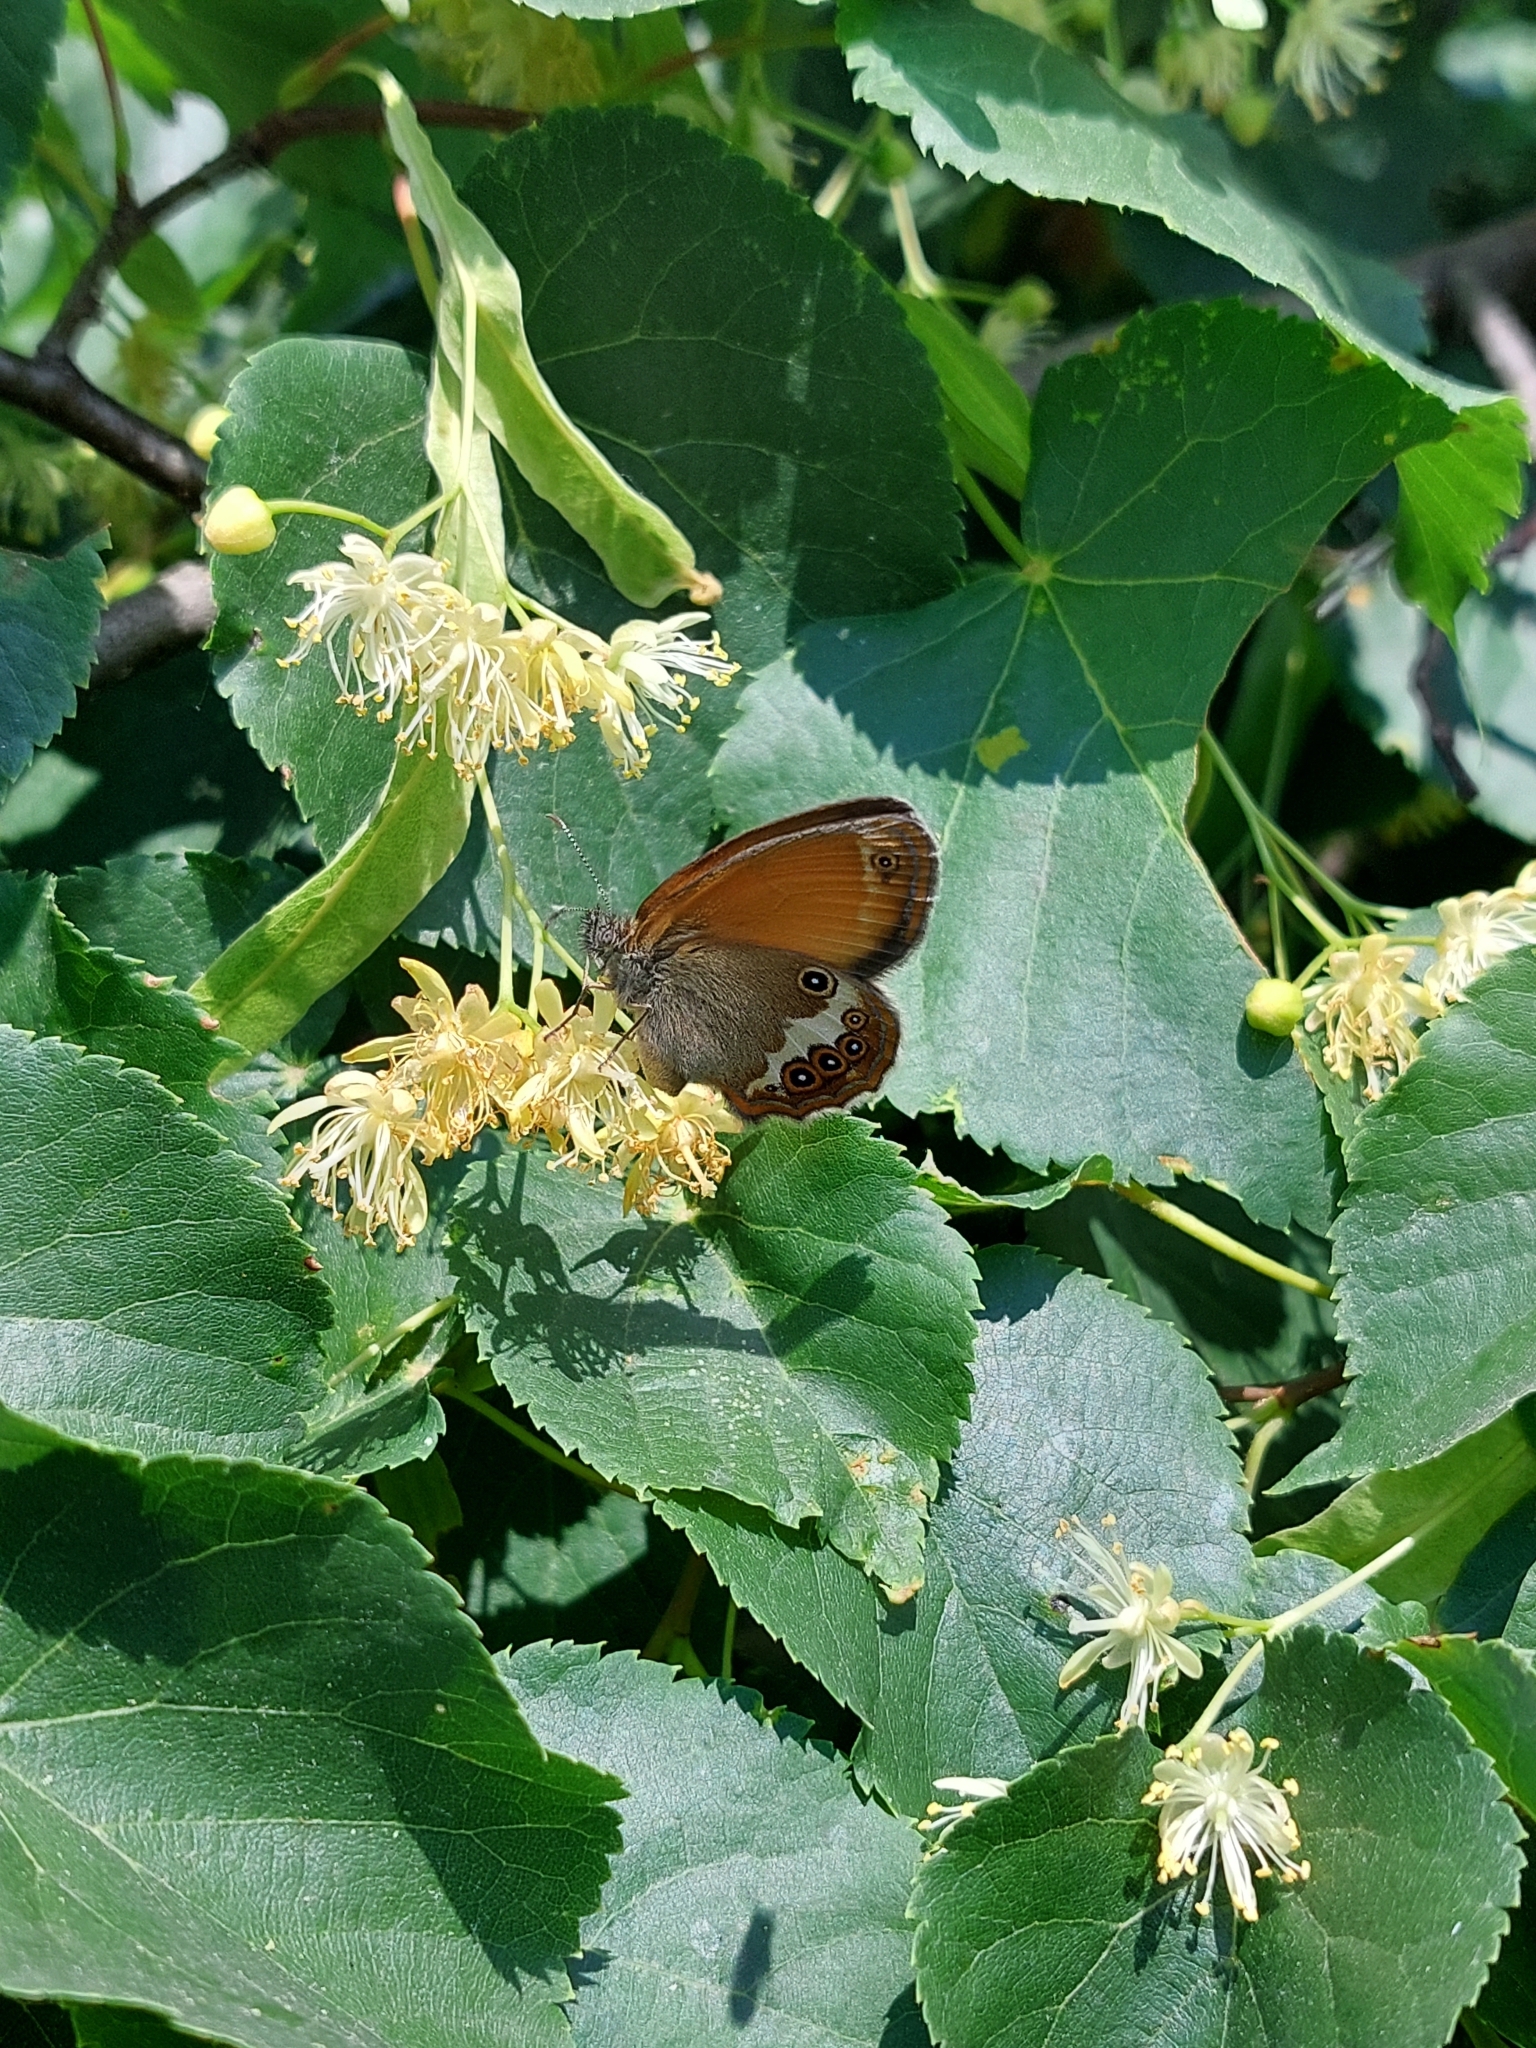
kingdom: Animalia
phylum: Arthropoda
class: Insecta
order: Lepidoptera
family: Nymphalidae
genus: Coenonympha
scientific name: Coenonympha arcania
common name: Pearly heath
